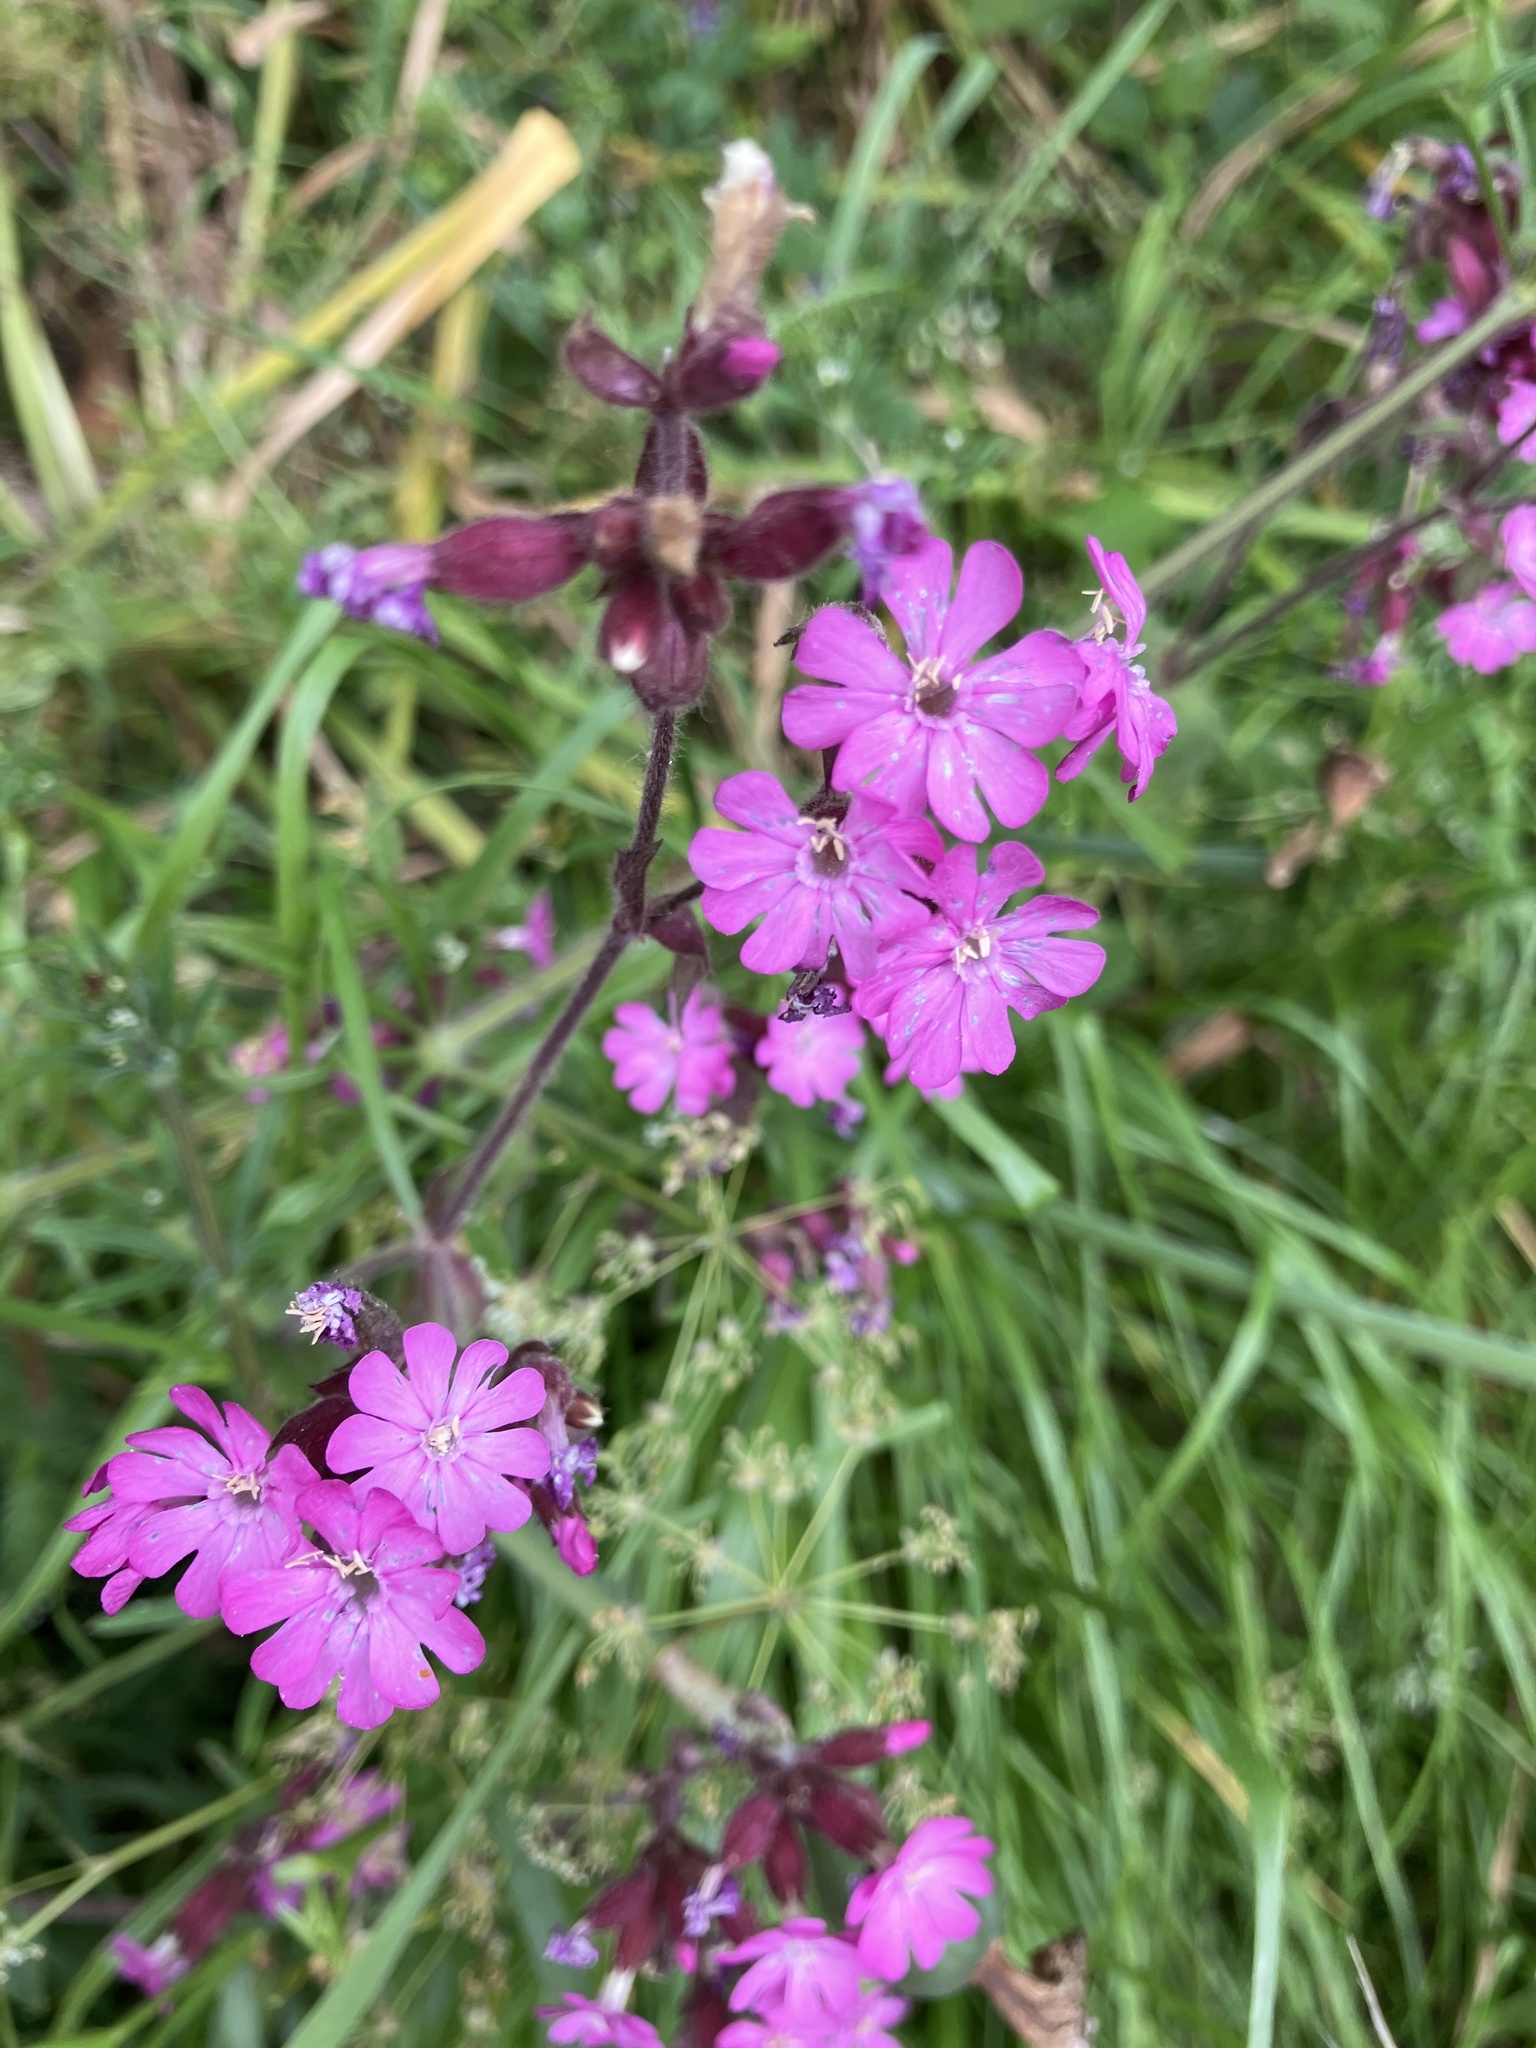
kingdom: Plantae
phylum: Tracheophyta
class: Magnoliopsida
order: Caryophyllales
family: Caryophyllaceae
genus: Silene
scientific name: Silene dioica
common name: Red campion
